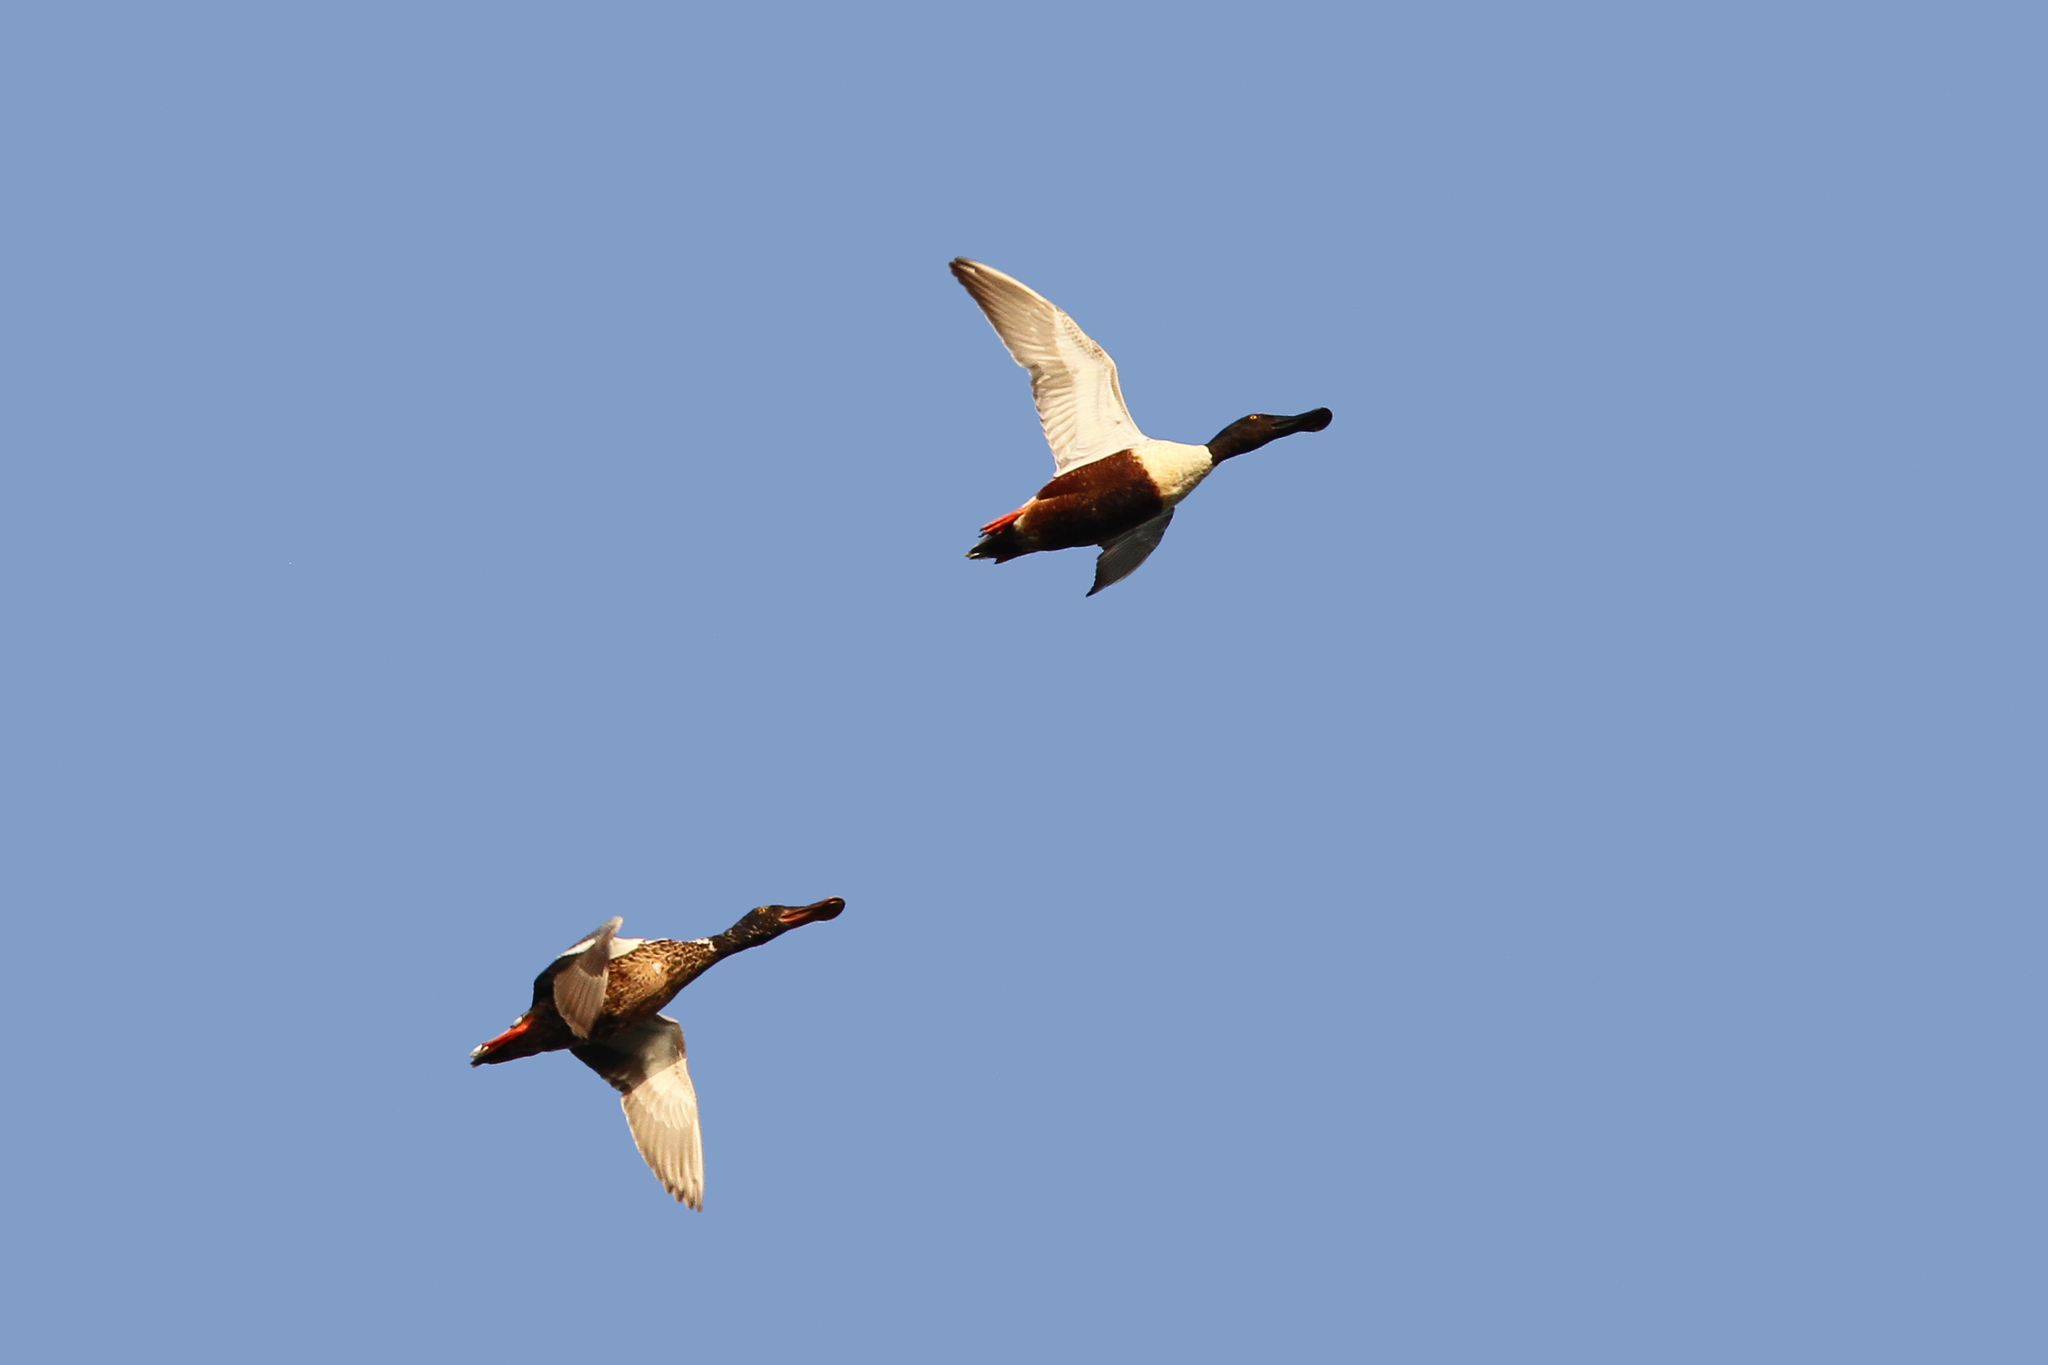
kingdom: Animalia
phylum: Chordata
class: Aves
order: Anseriformes
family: Anatidae
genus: Spatula
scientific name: Spatula clypeata
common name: Northern shoveler
